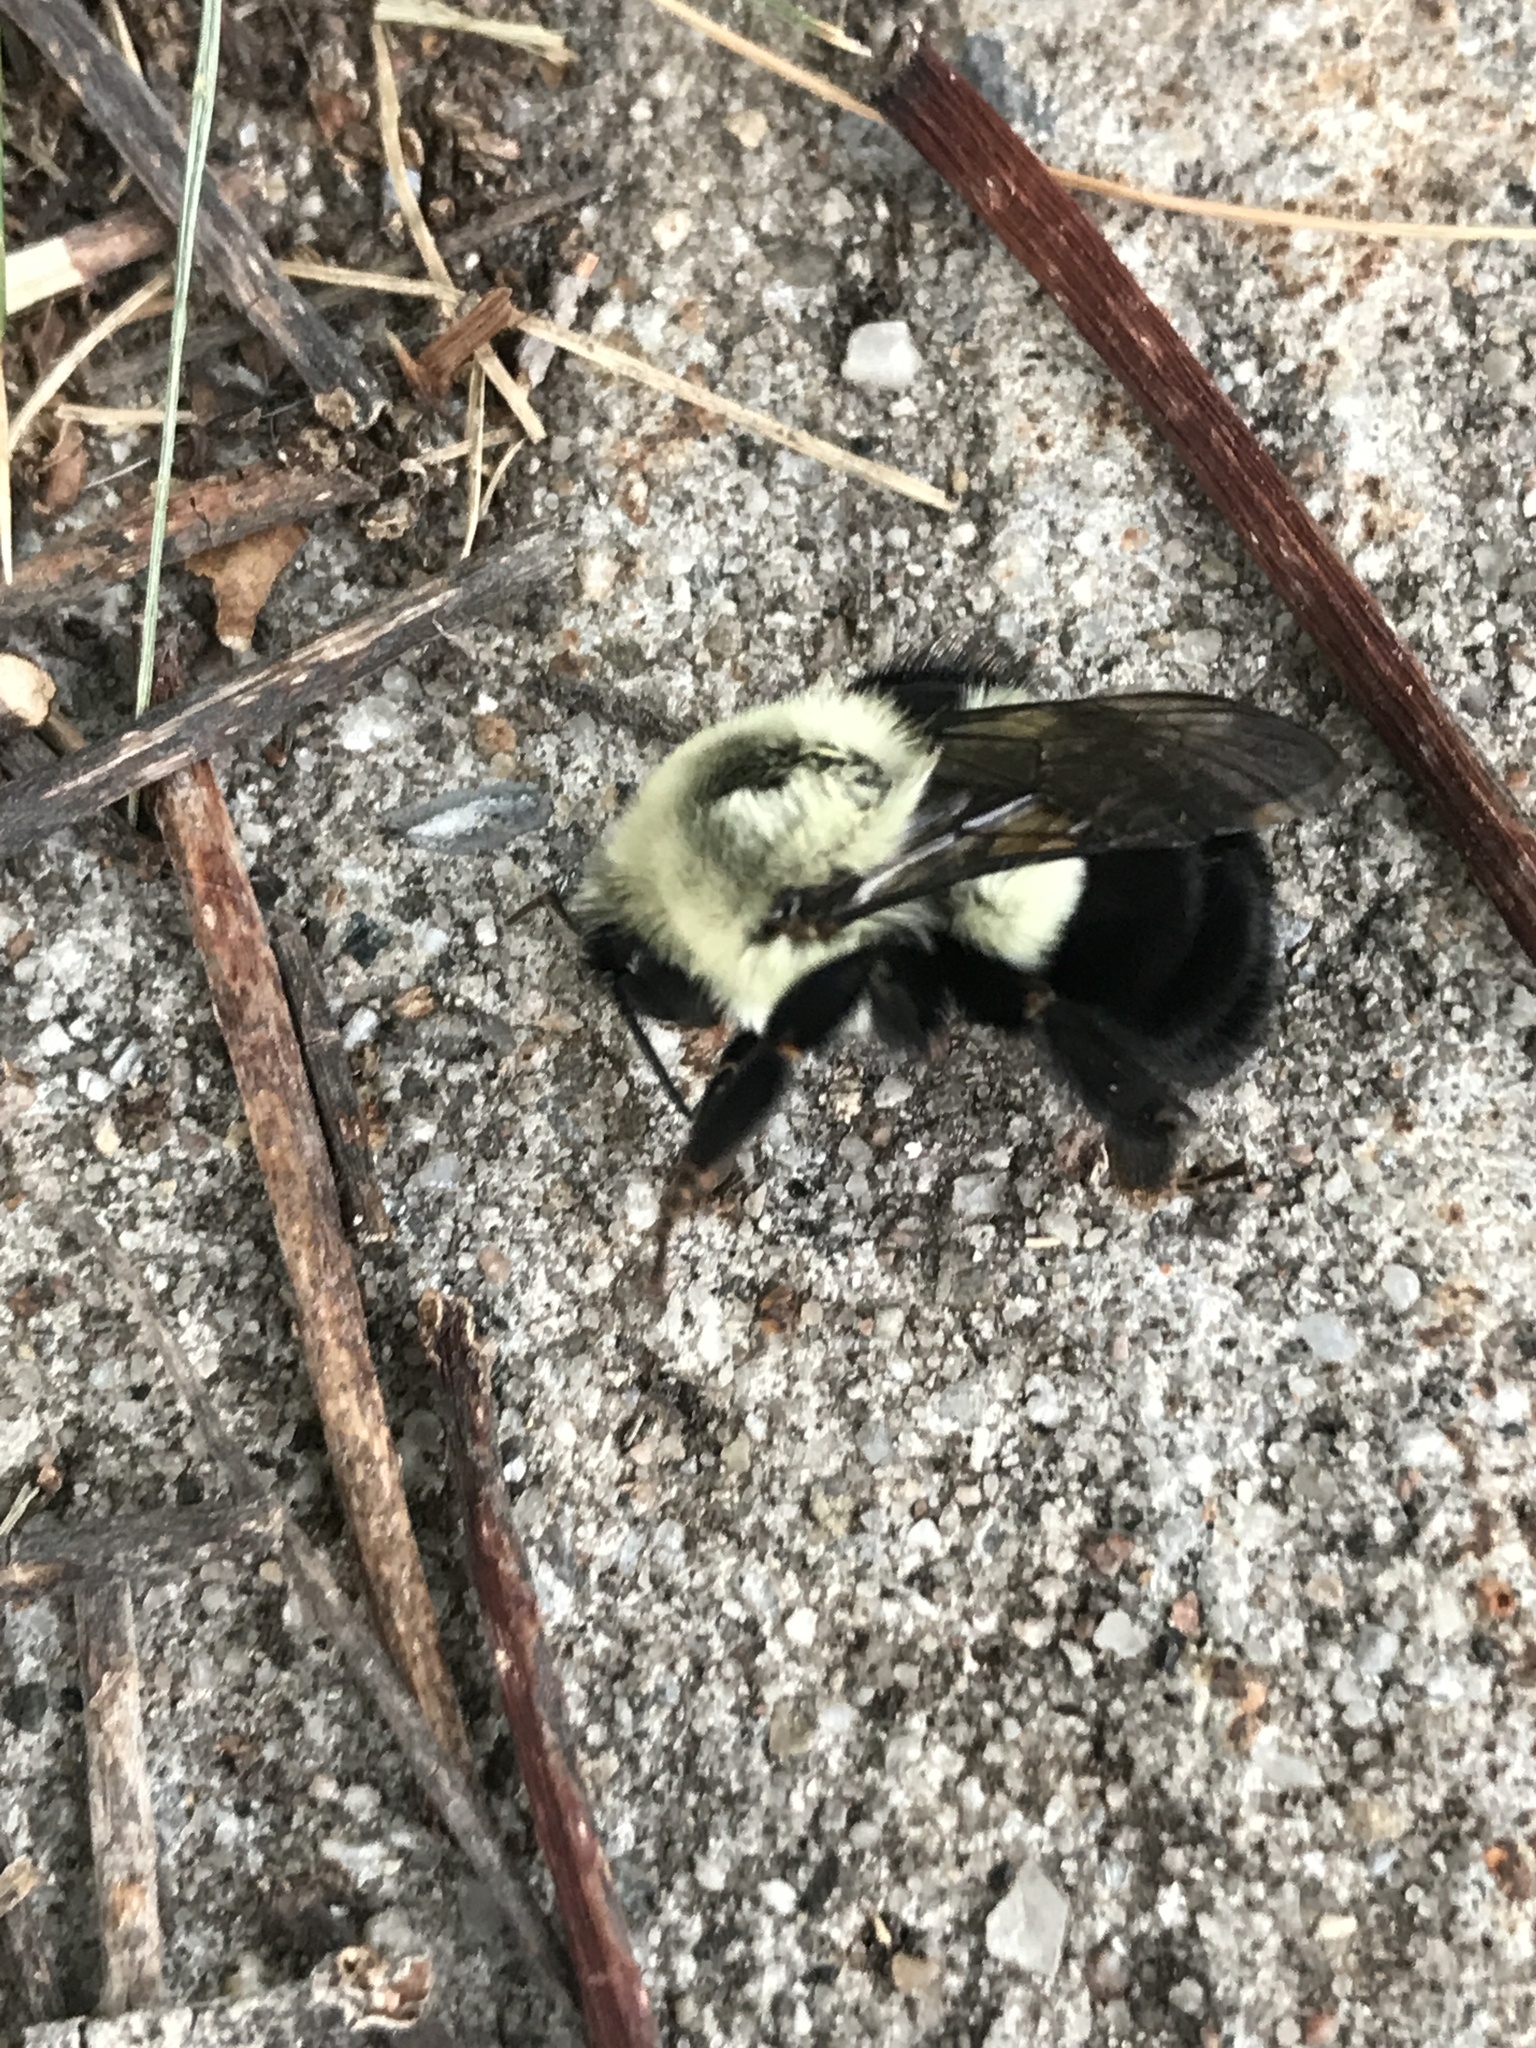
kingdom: Animalia
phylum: Arthropoda
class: Insecta
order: Hymenoptera
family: Apidae
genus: Bombus
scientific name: Bombus impatiens
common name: Common eastern bumble bee
